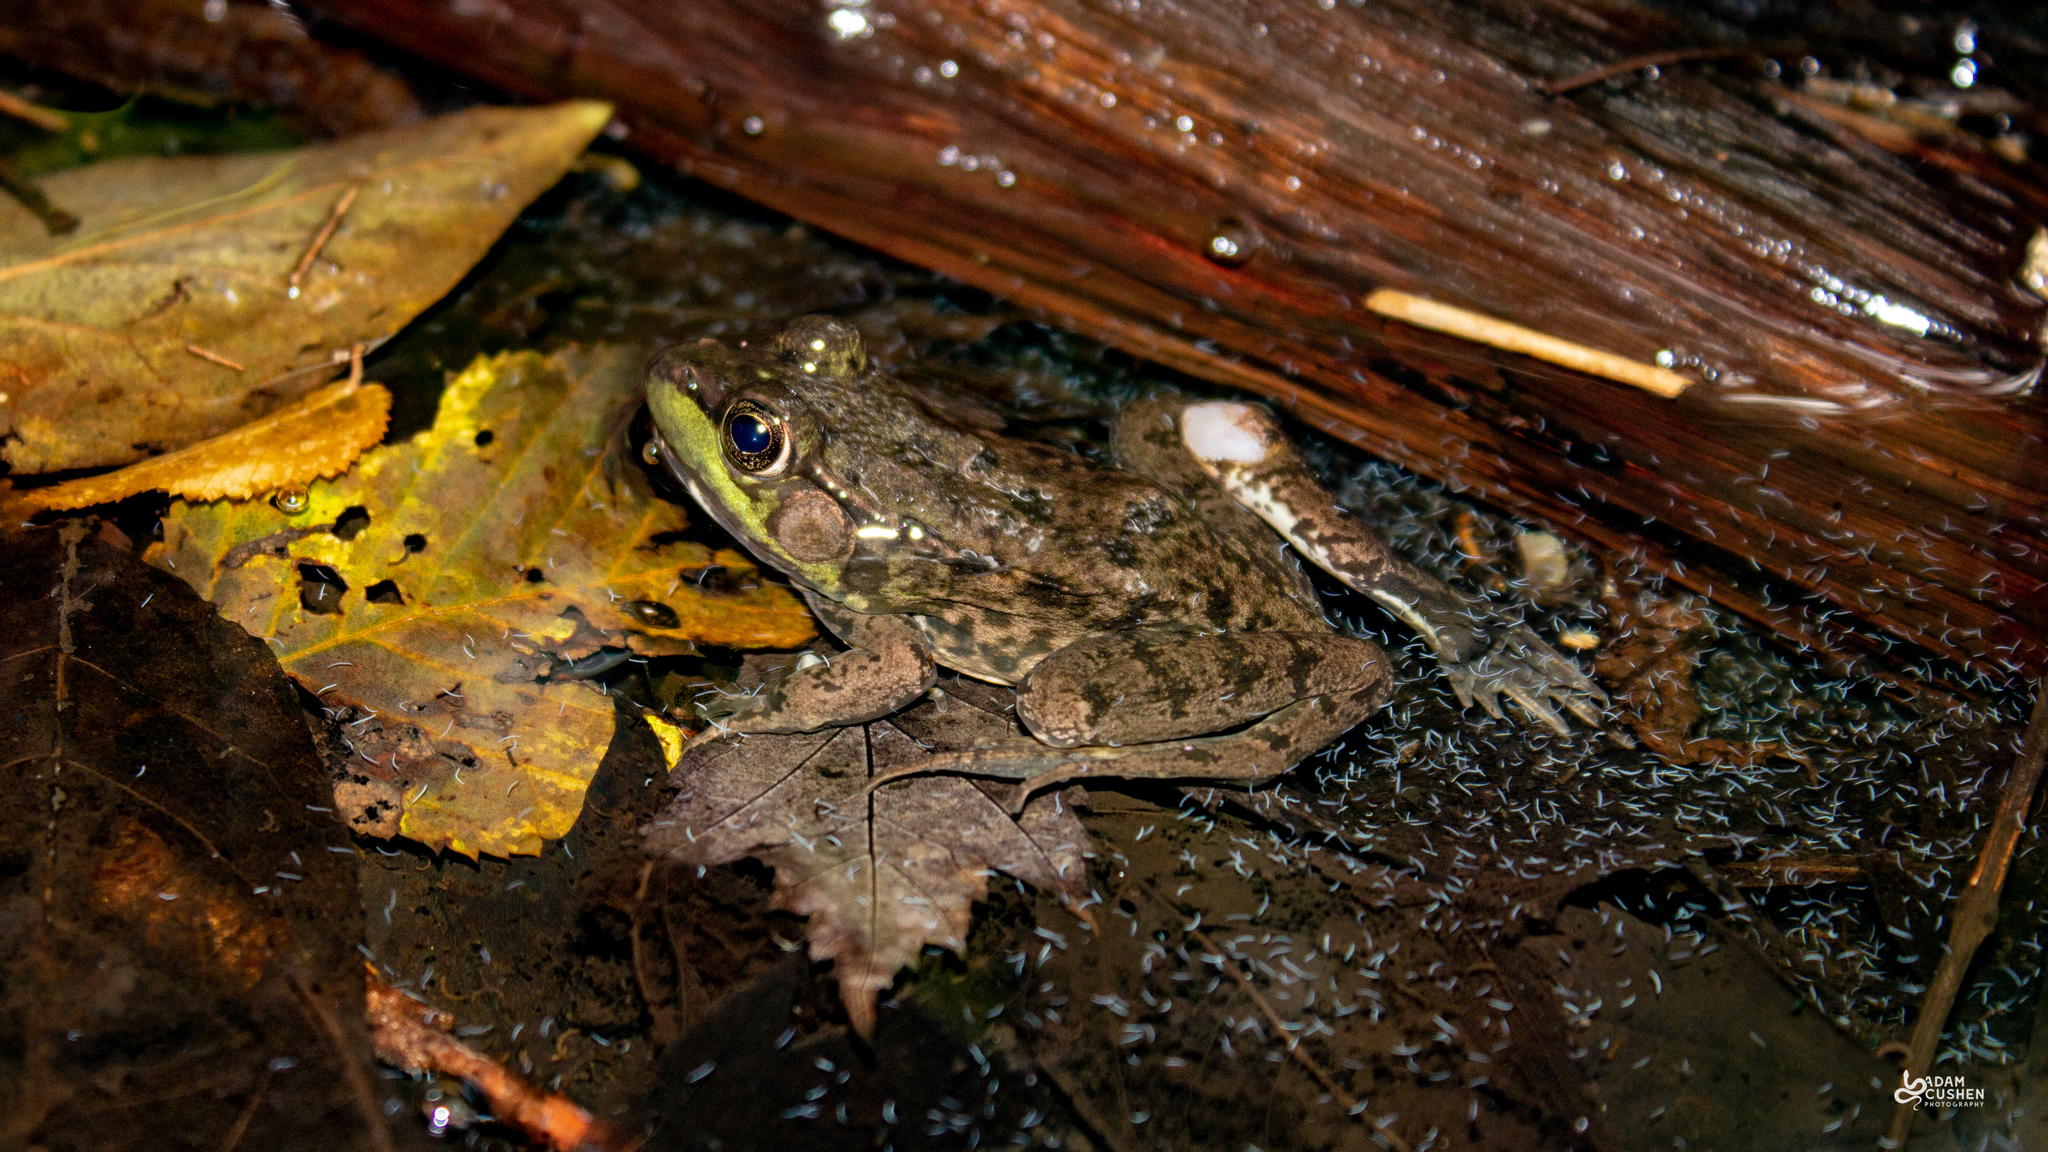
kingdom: Animalia
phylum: Chordata
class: Amphibia
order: Anura
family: Ranidae
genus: Lithobates
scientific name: Lithobates clamitans
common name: Green frog
